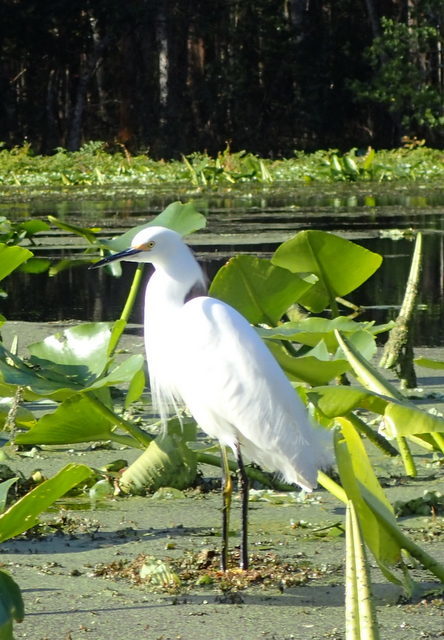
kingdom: Animalia
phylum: Chordata
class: Aves
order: Pelecaniformes
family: Ardeidae
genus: Egretta
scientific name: Egretta thula
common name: Snowy egret
